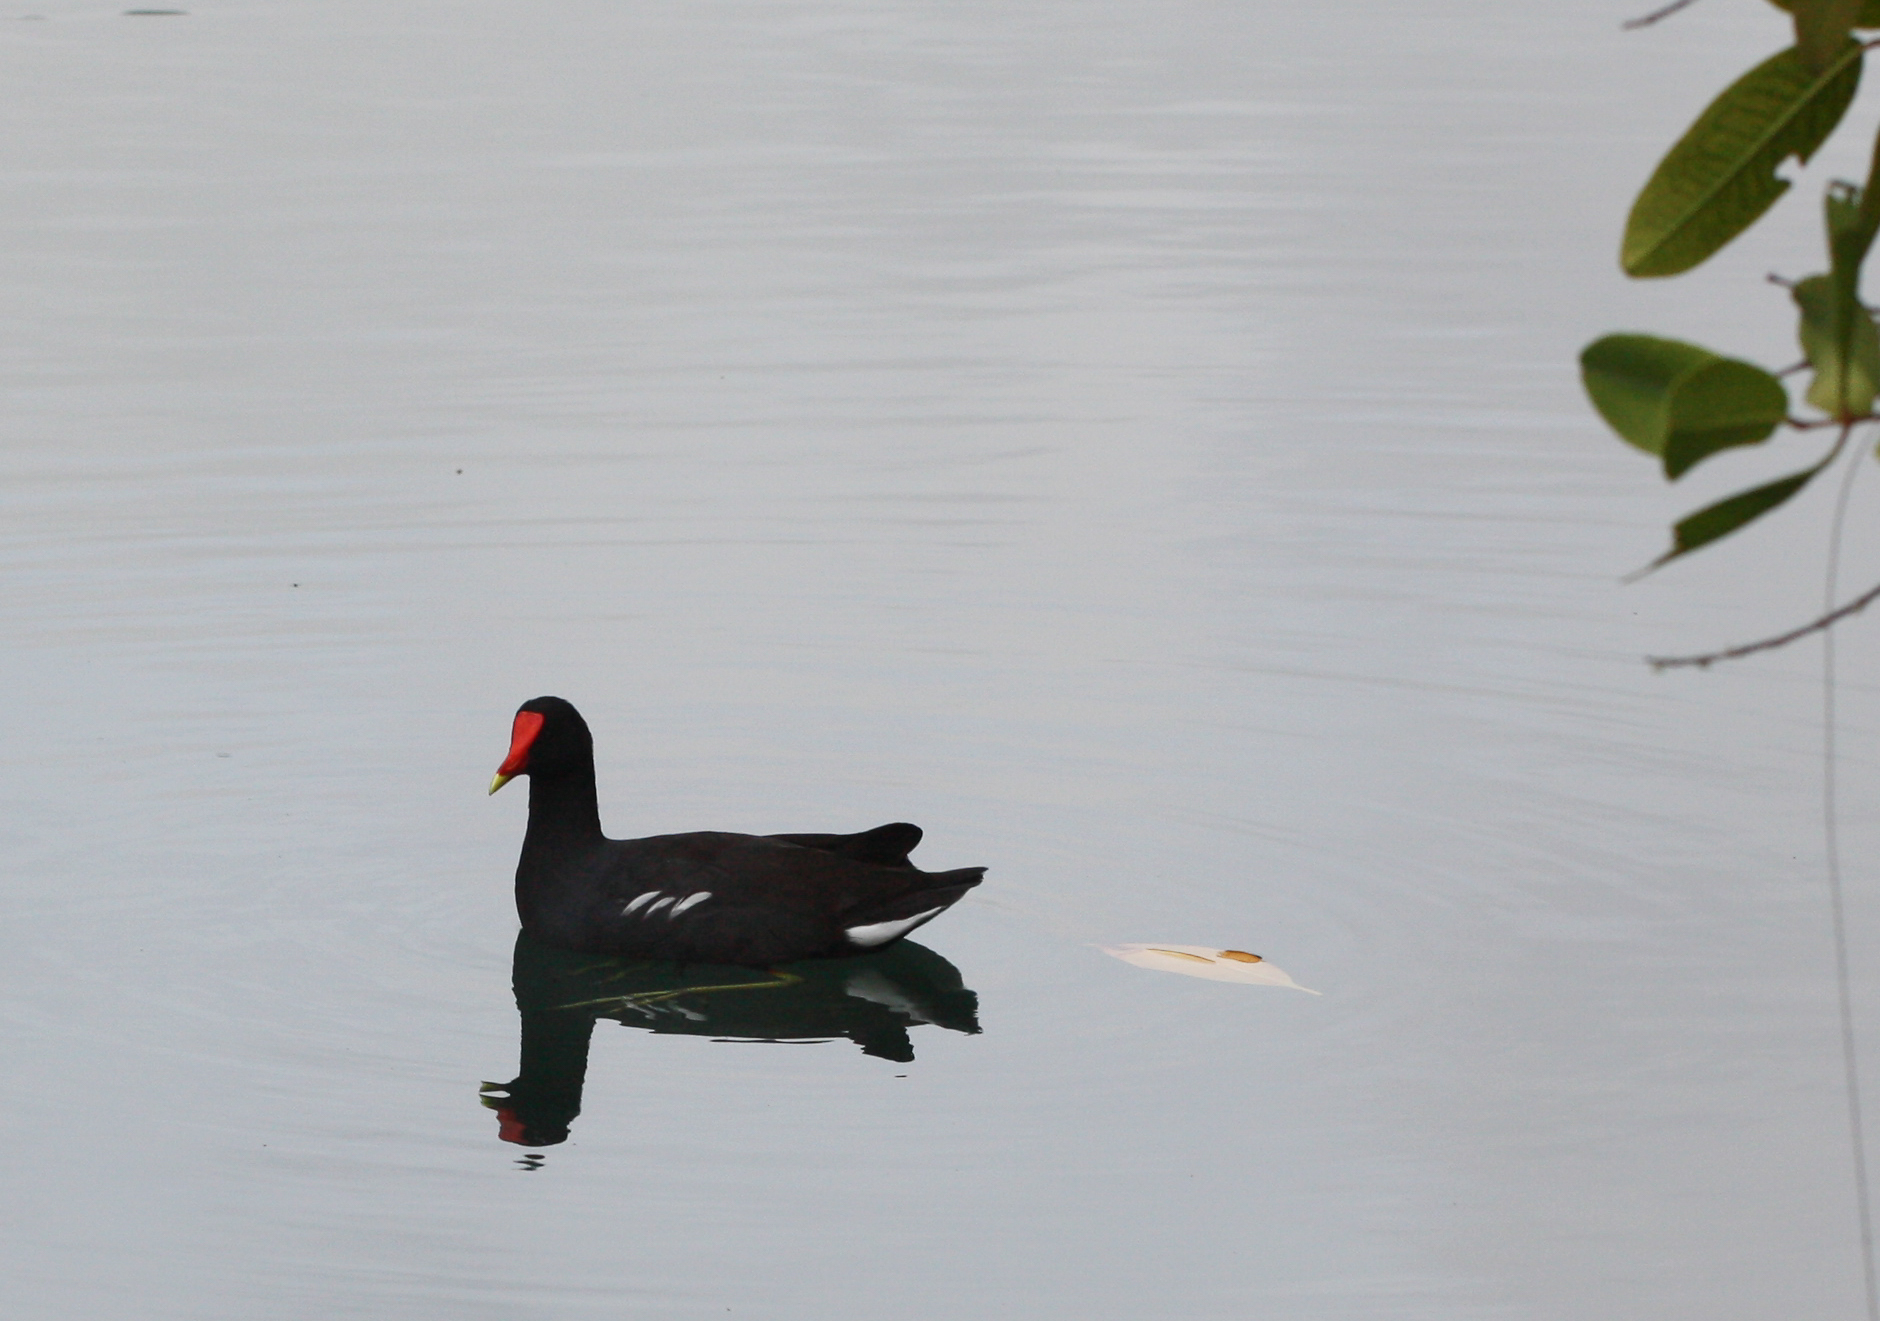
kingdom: Animalia
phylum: Chordata
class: Aves
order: Gruiformes
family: Rallidae
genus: Gallinula
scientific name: Gallinula chloropus
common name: Common moorhen
